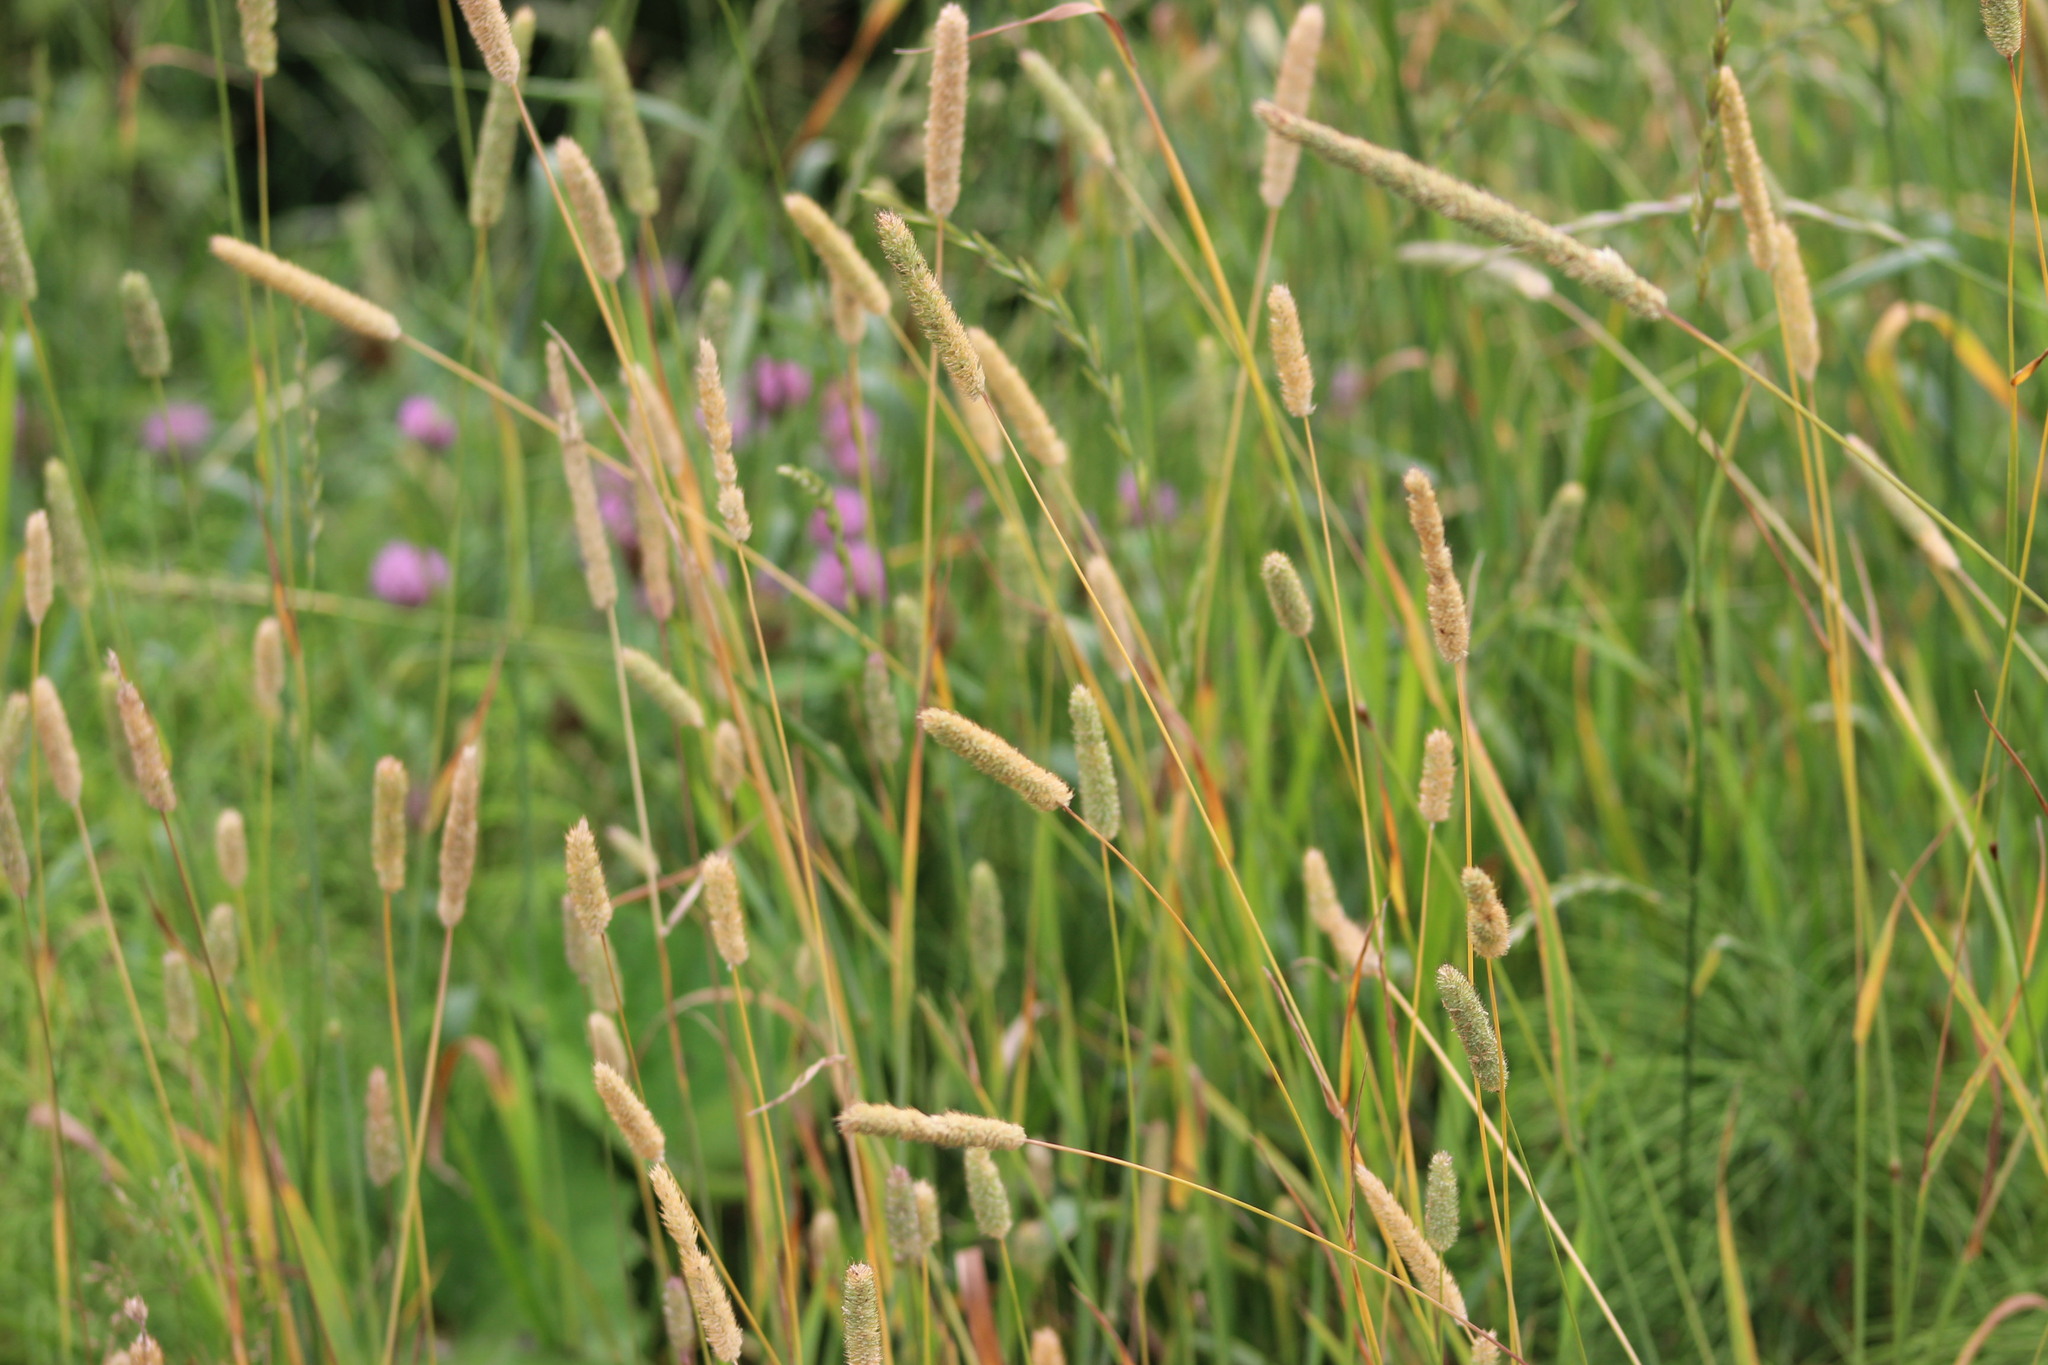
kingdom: Plantae
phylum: Tracheophyta
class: Liliopsida
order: Poales
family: Poaceae
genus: Phleum
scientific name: Phleum pratense
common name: Timothy grass
